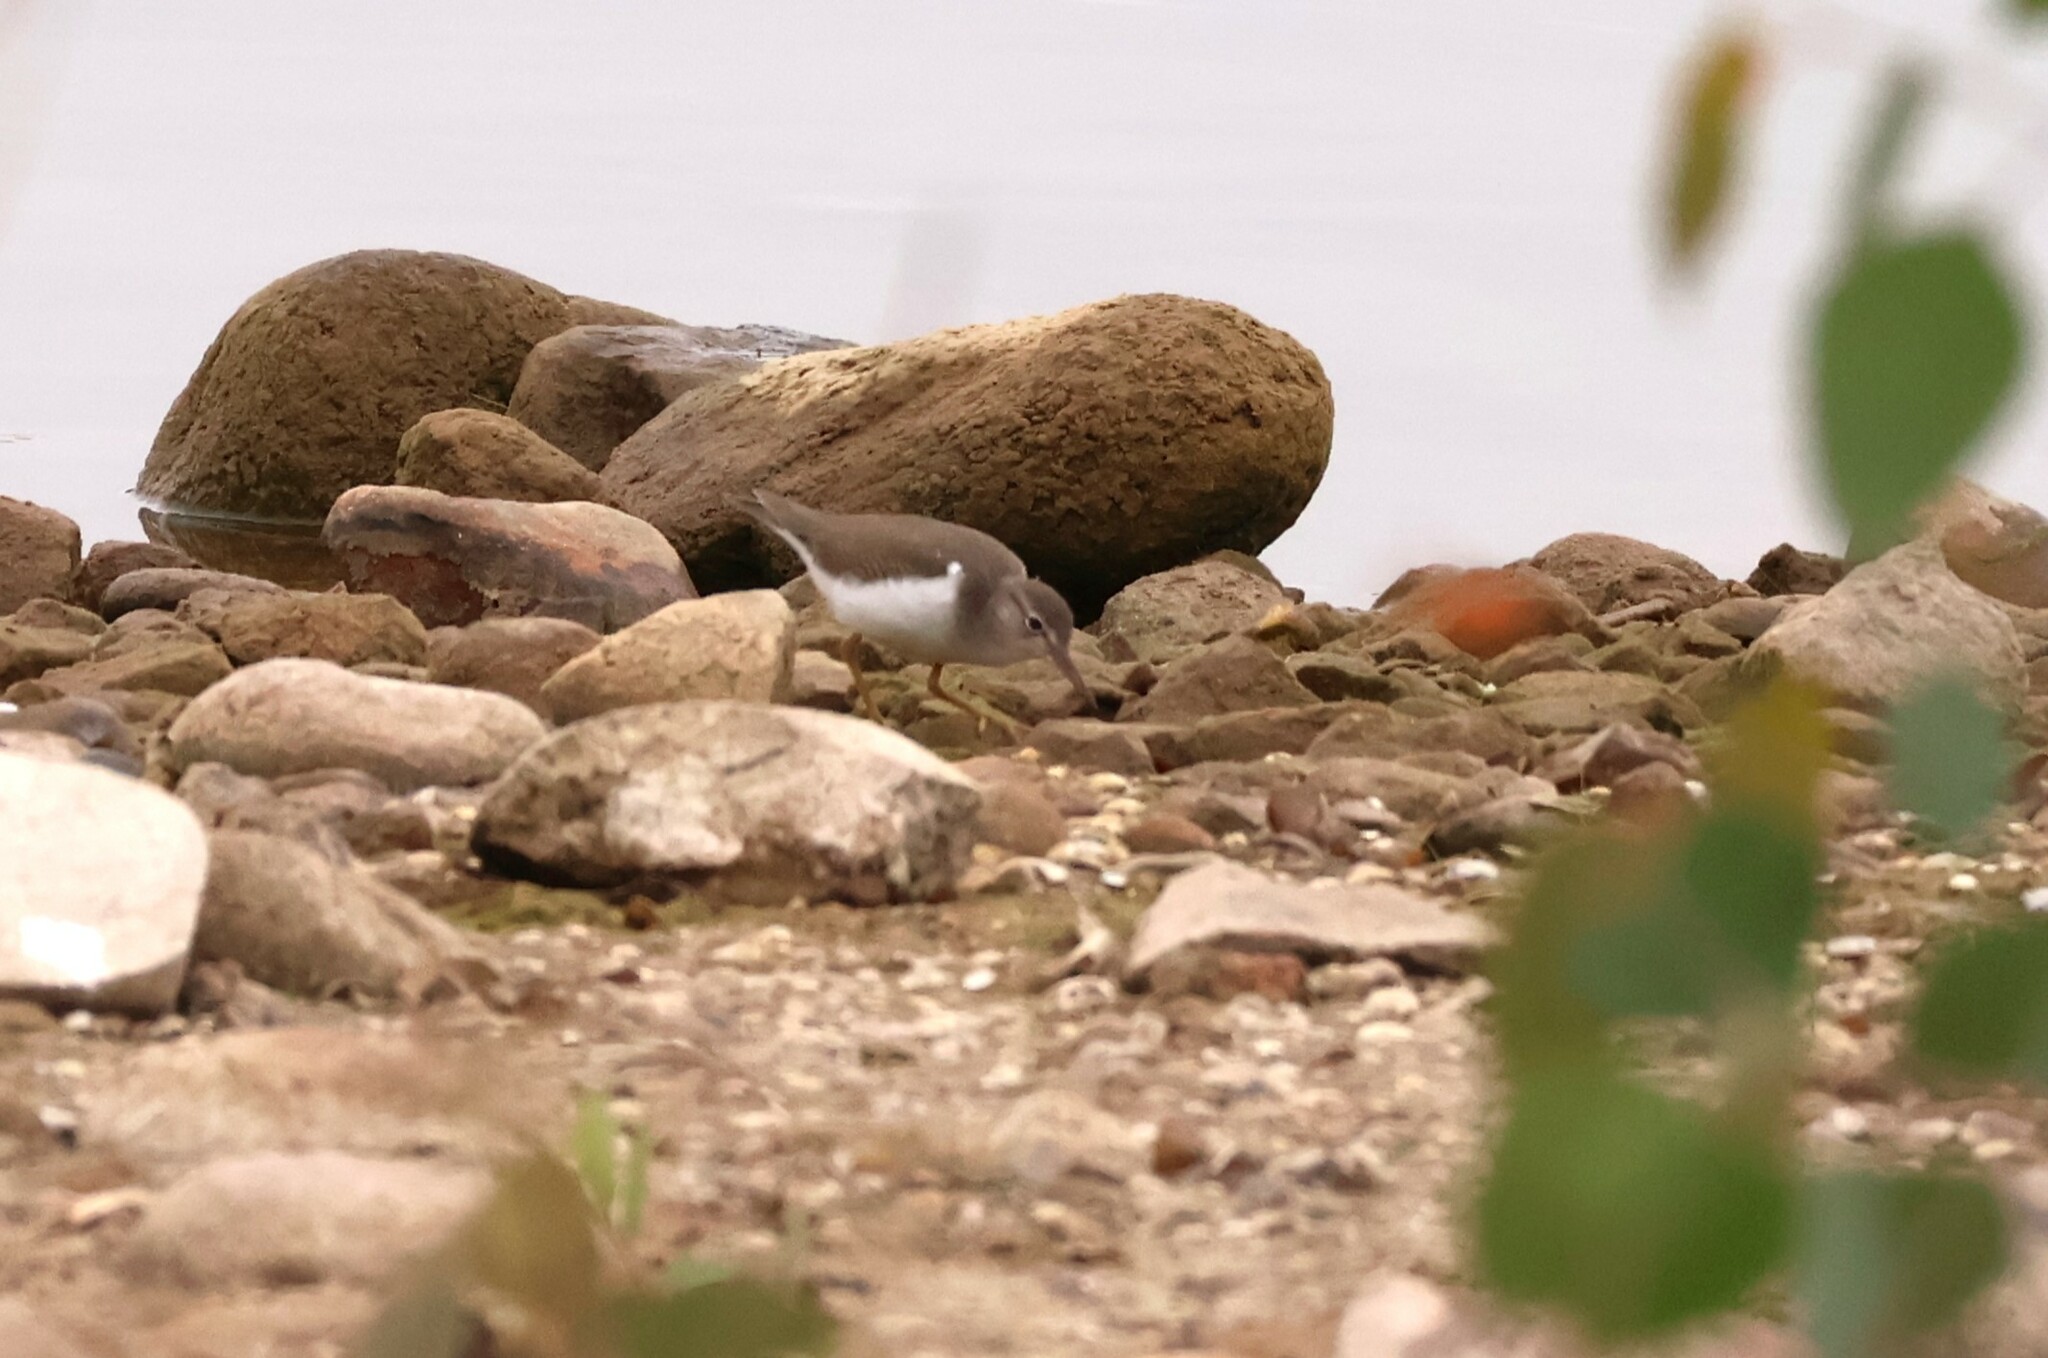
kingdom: Animalia
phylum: Chordata
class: Aves
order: Charadriiformes
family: Scolopacidae
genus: Actitis
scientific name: Actitis macularius
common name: Spotted sandpiper
